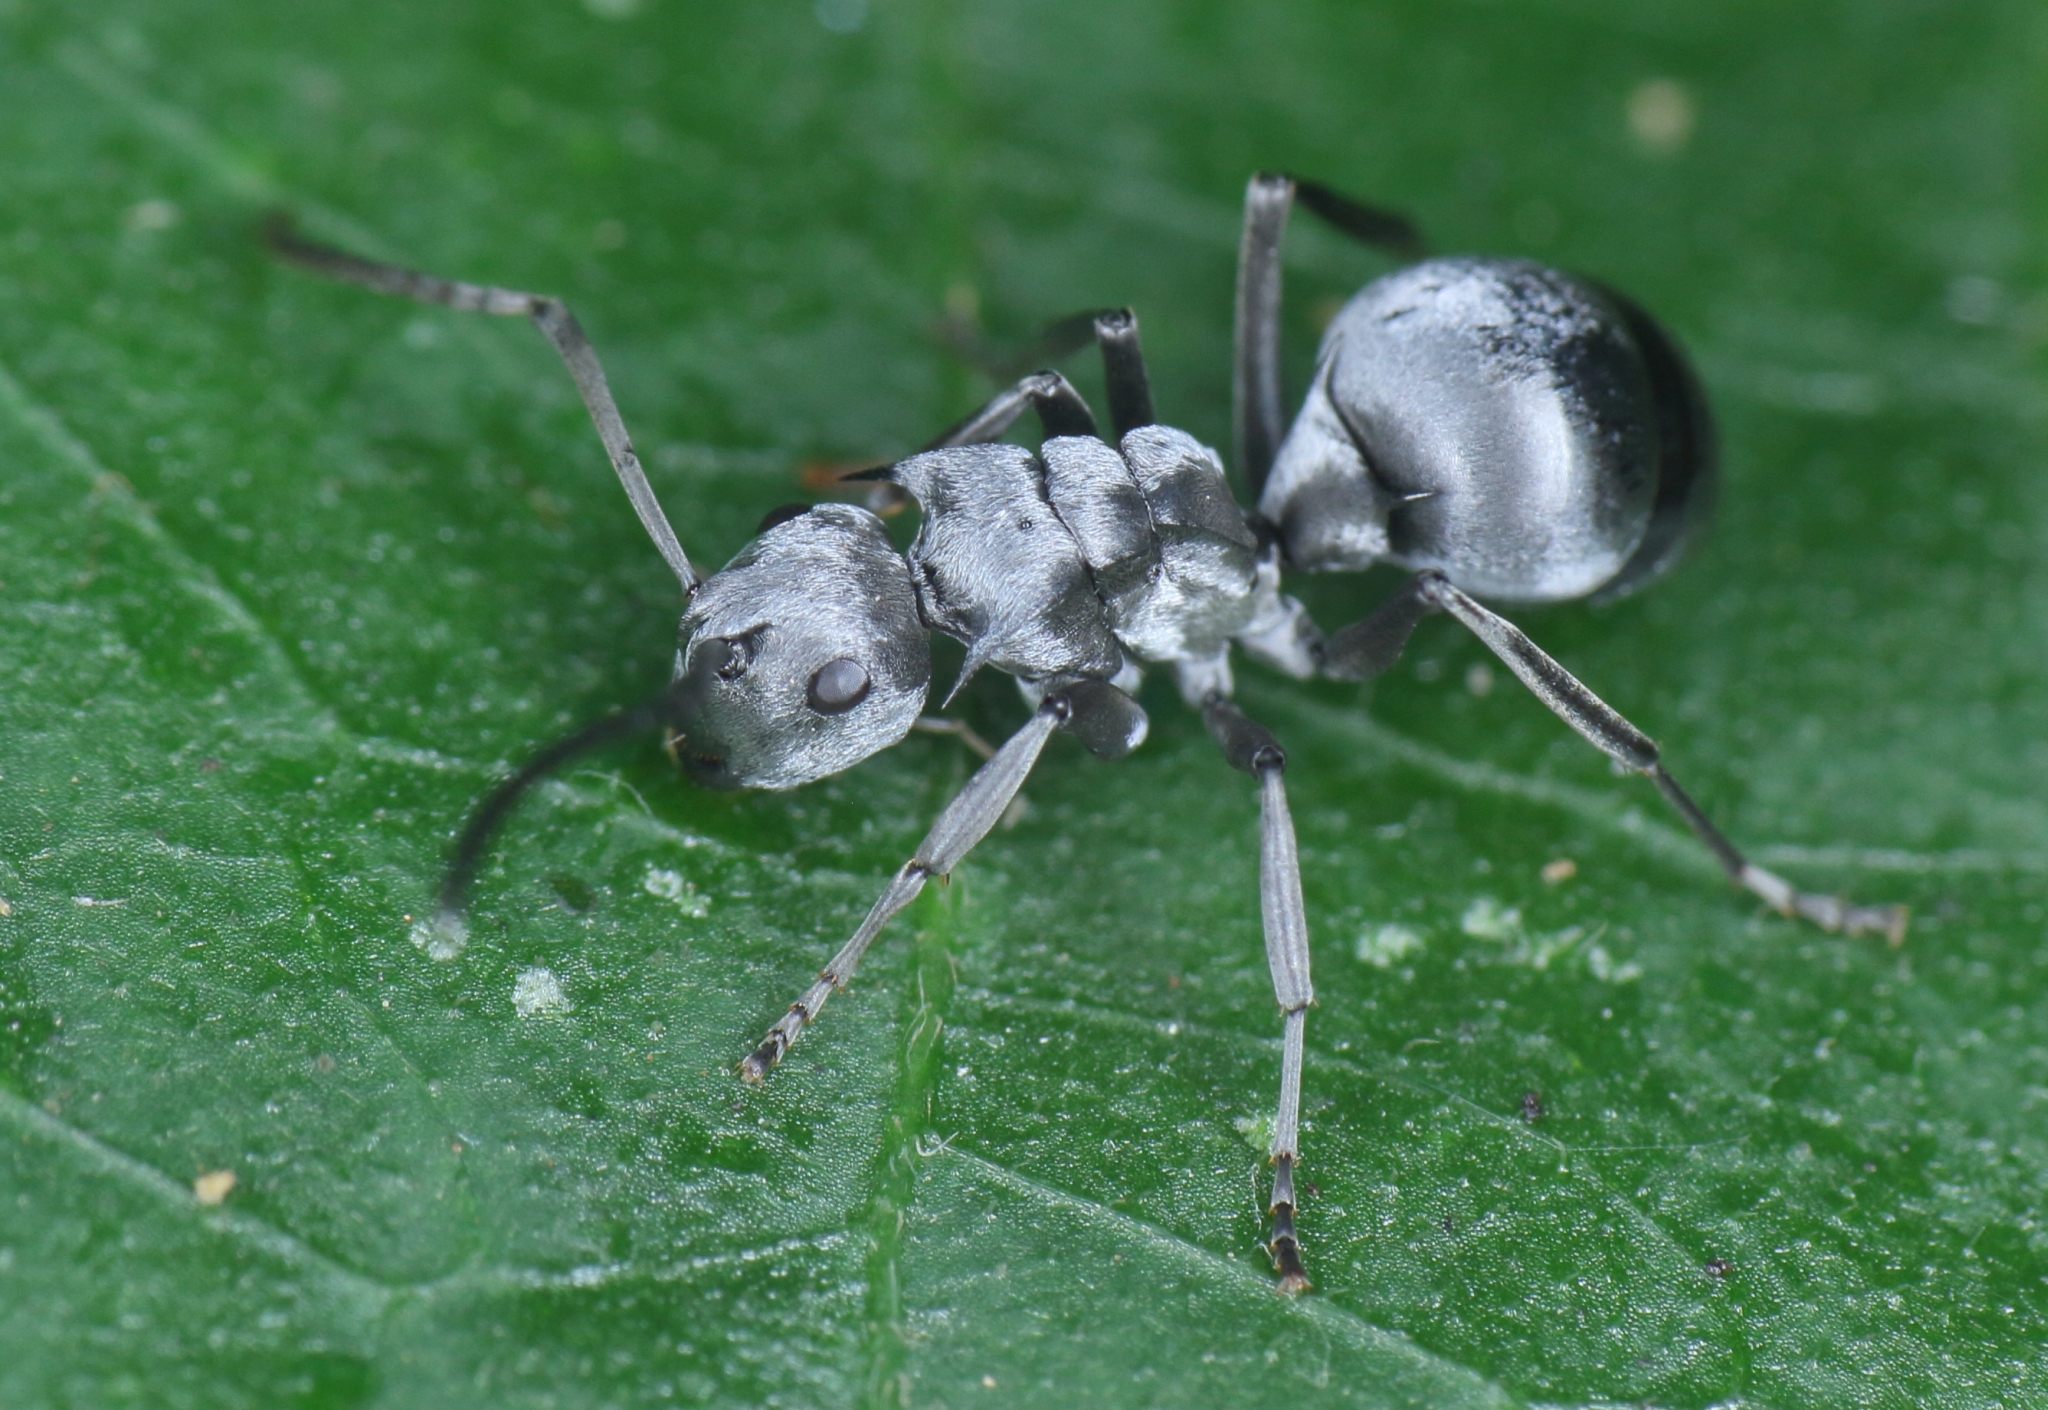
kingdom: Animalia
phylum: Arthropoda
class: Insecta
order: Hymenoptera
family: Formicidae
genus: Polyrhachis
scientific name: Polyrhachis schlueteri
